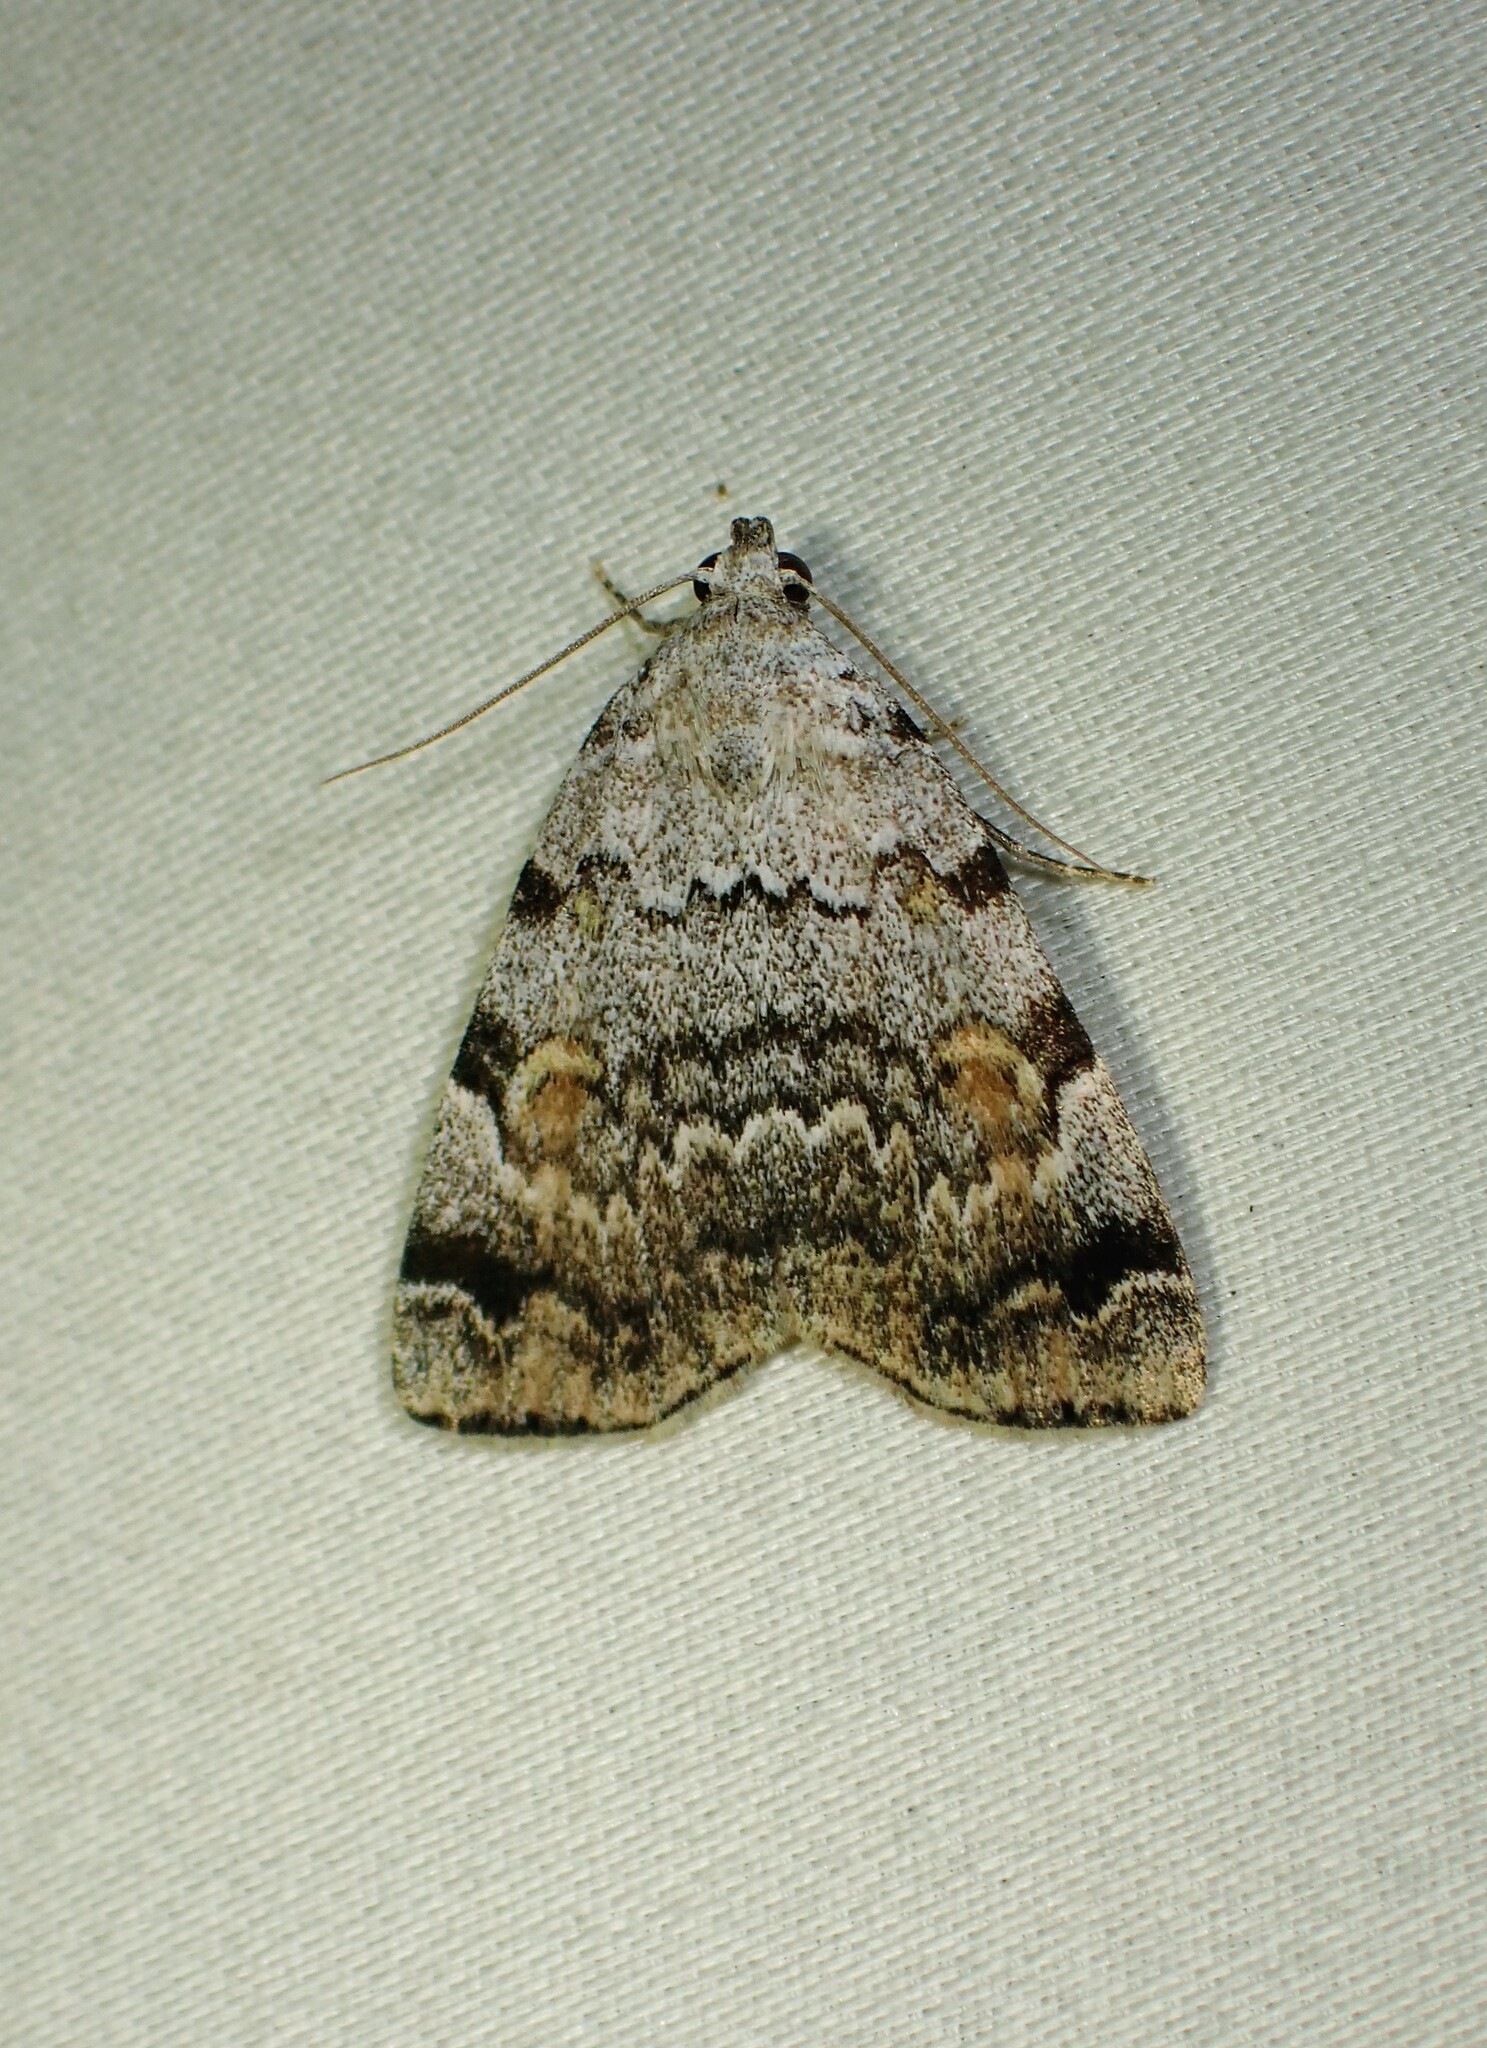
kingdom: Animalia
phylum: Arthropoda
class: Insecta
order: Lepidoptera
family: Erebidae
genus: Idia
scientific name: Idia americalis
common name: American idia moth
